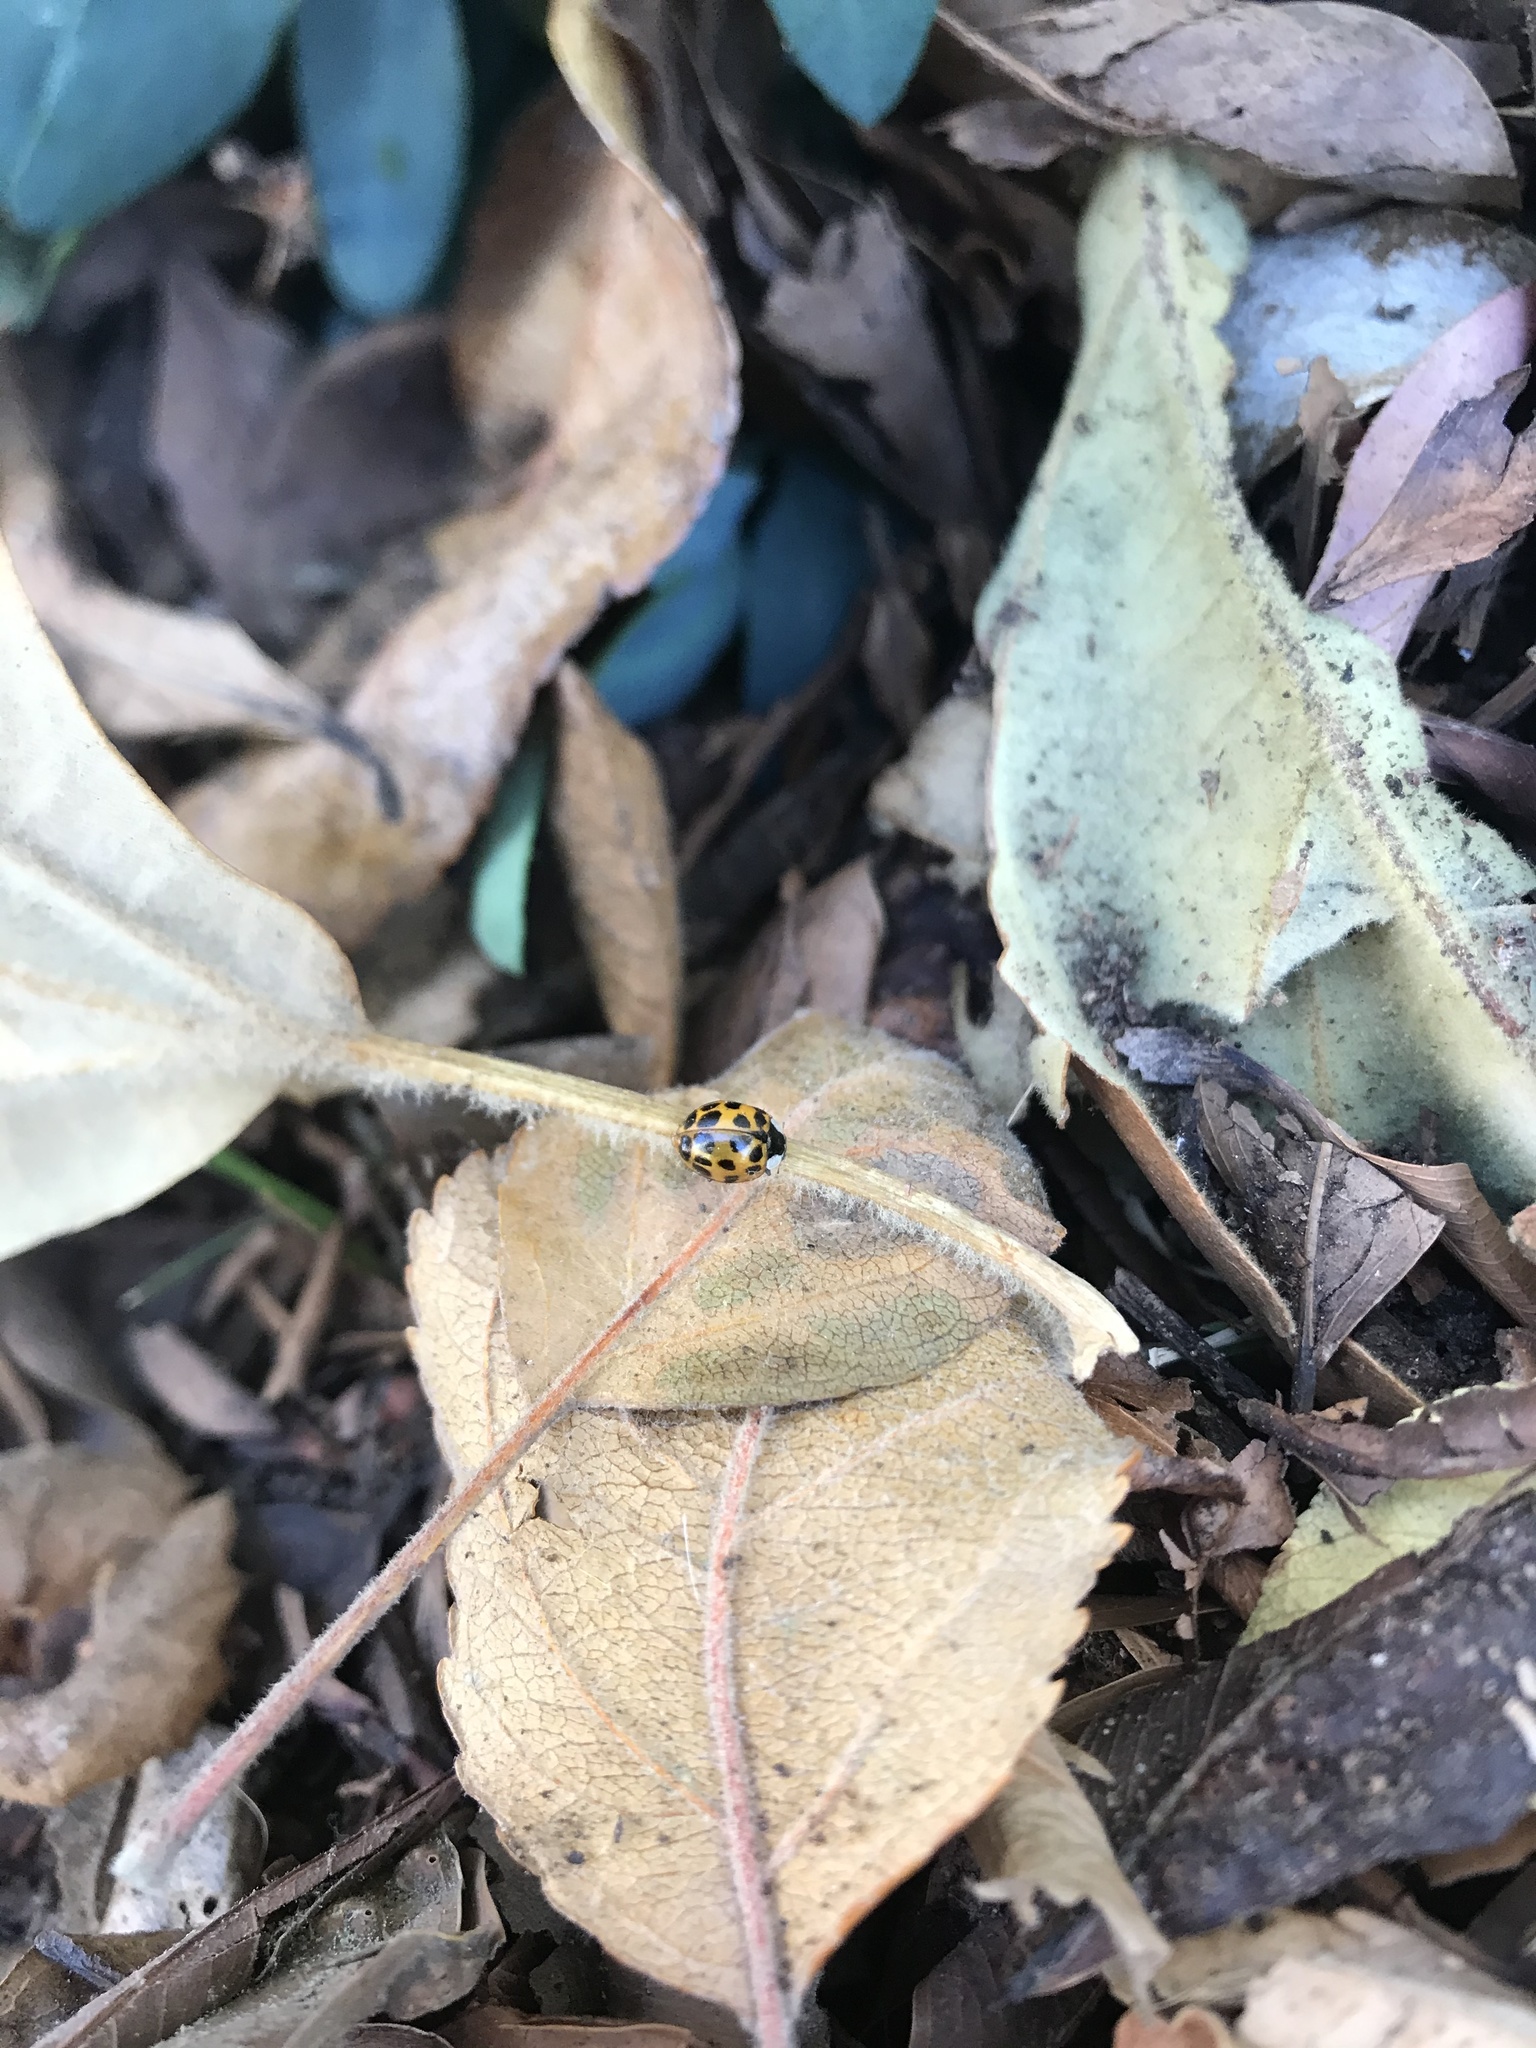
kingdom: Animalia
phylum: Arthropoda
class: Insecta
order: Coleoptera
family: Coccinellidae
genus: Harmonia
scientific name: Harmonia axyridis
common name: Harlequin ladybird
